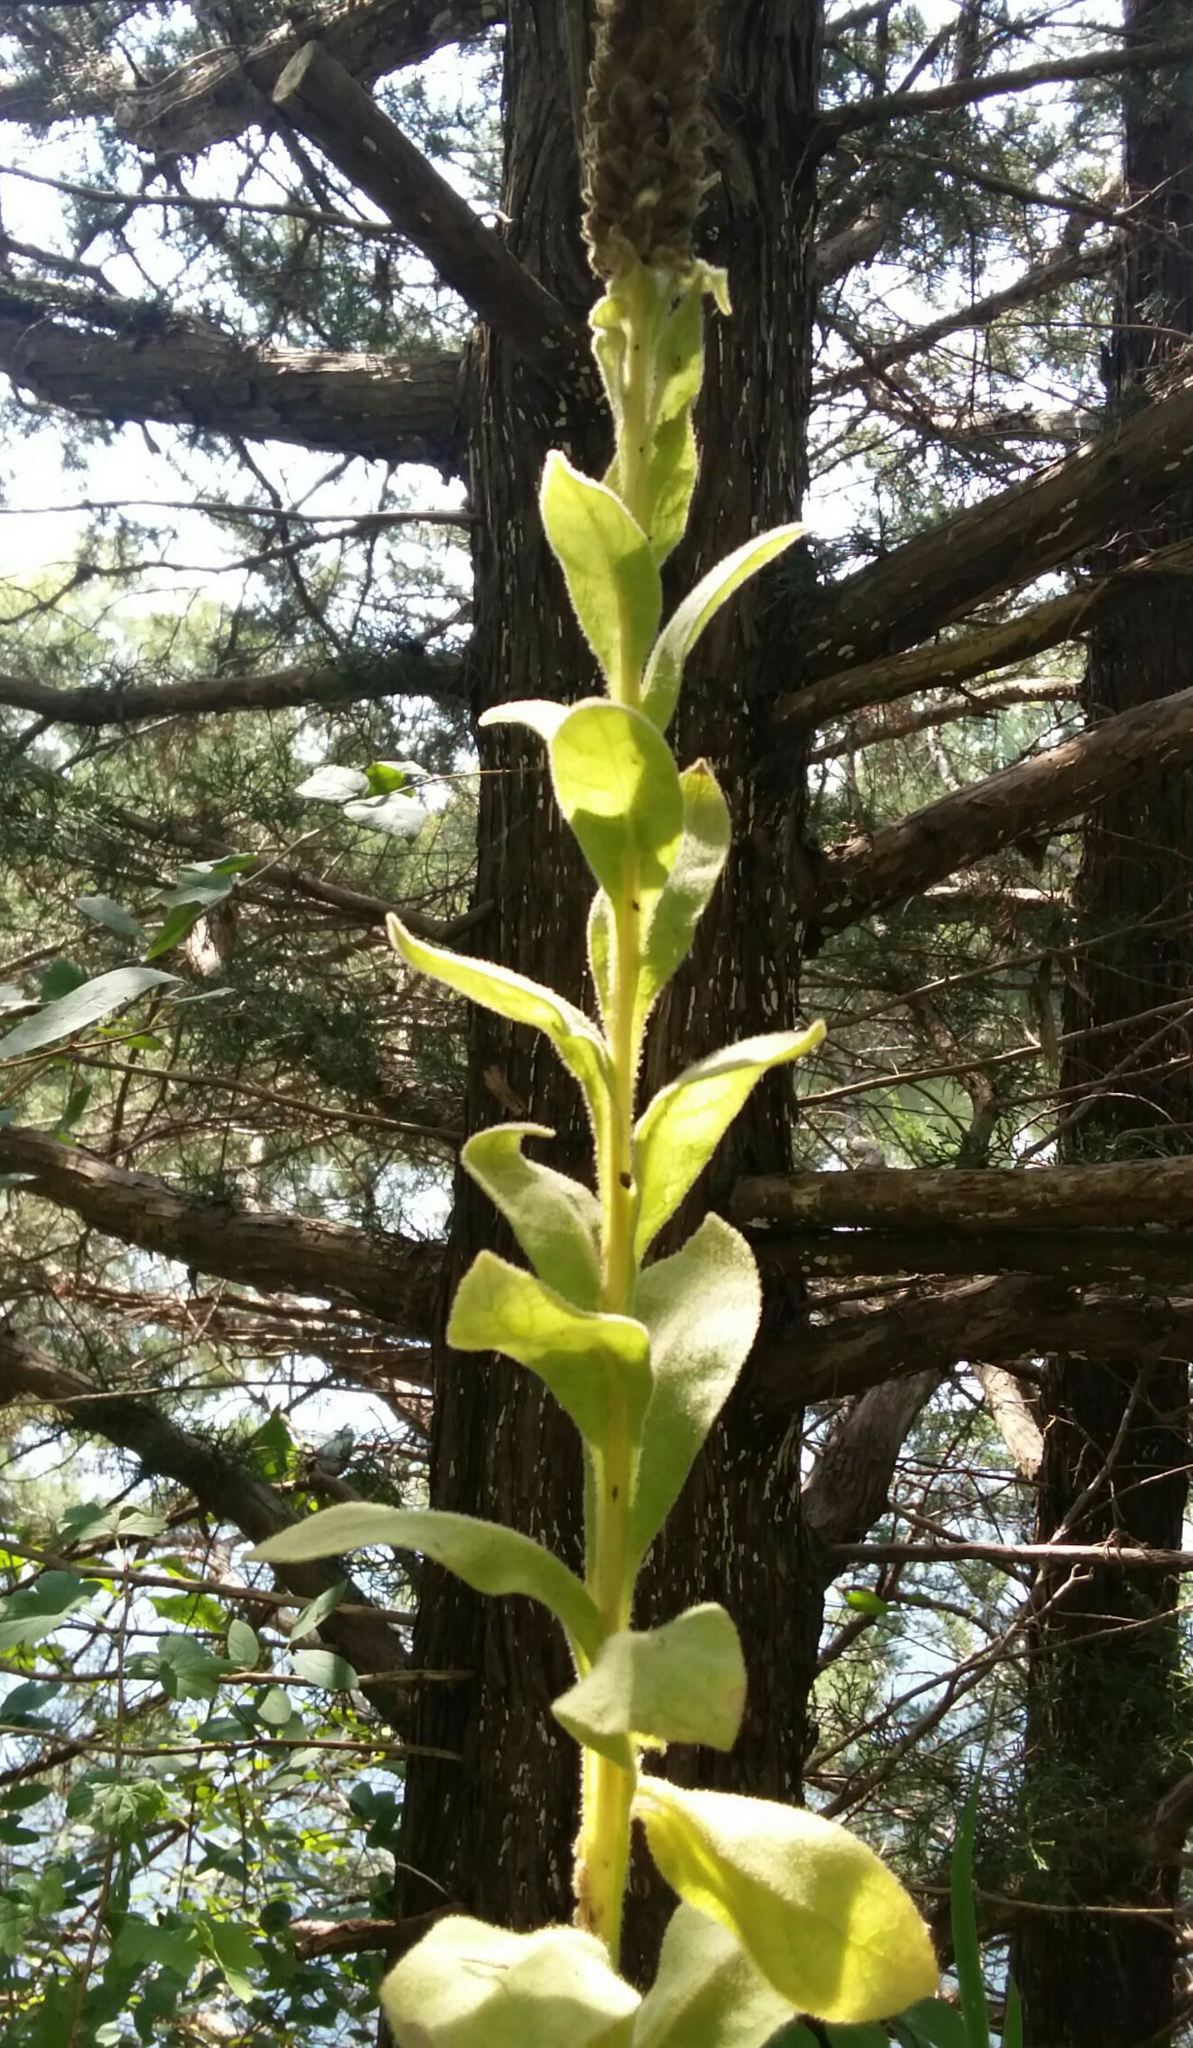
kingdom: Plantae
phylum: Tracheophyta
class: Magnoliopsida
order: Lamiales
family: Scrophulariaceae
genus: Verbascum
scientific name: Verbascum thapsus
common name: Common mullein
